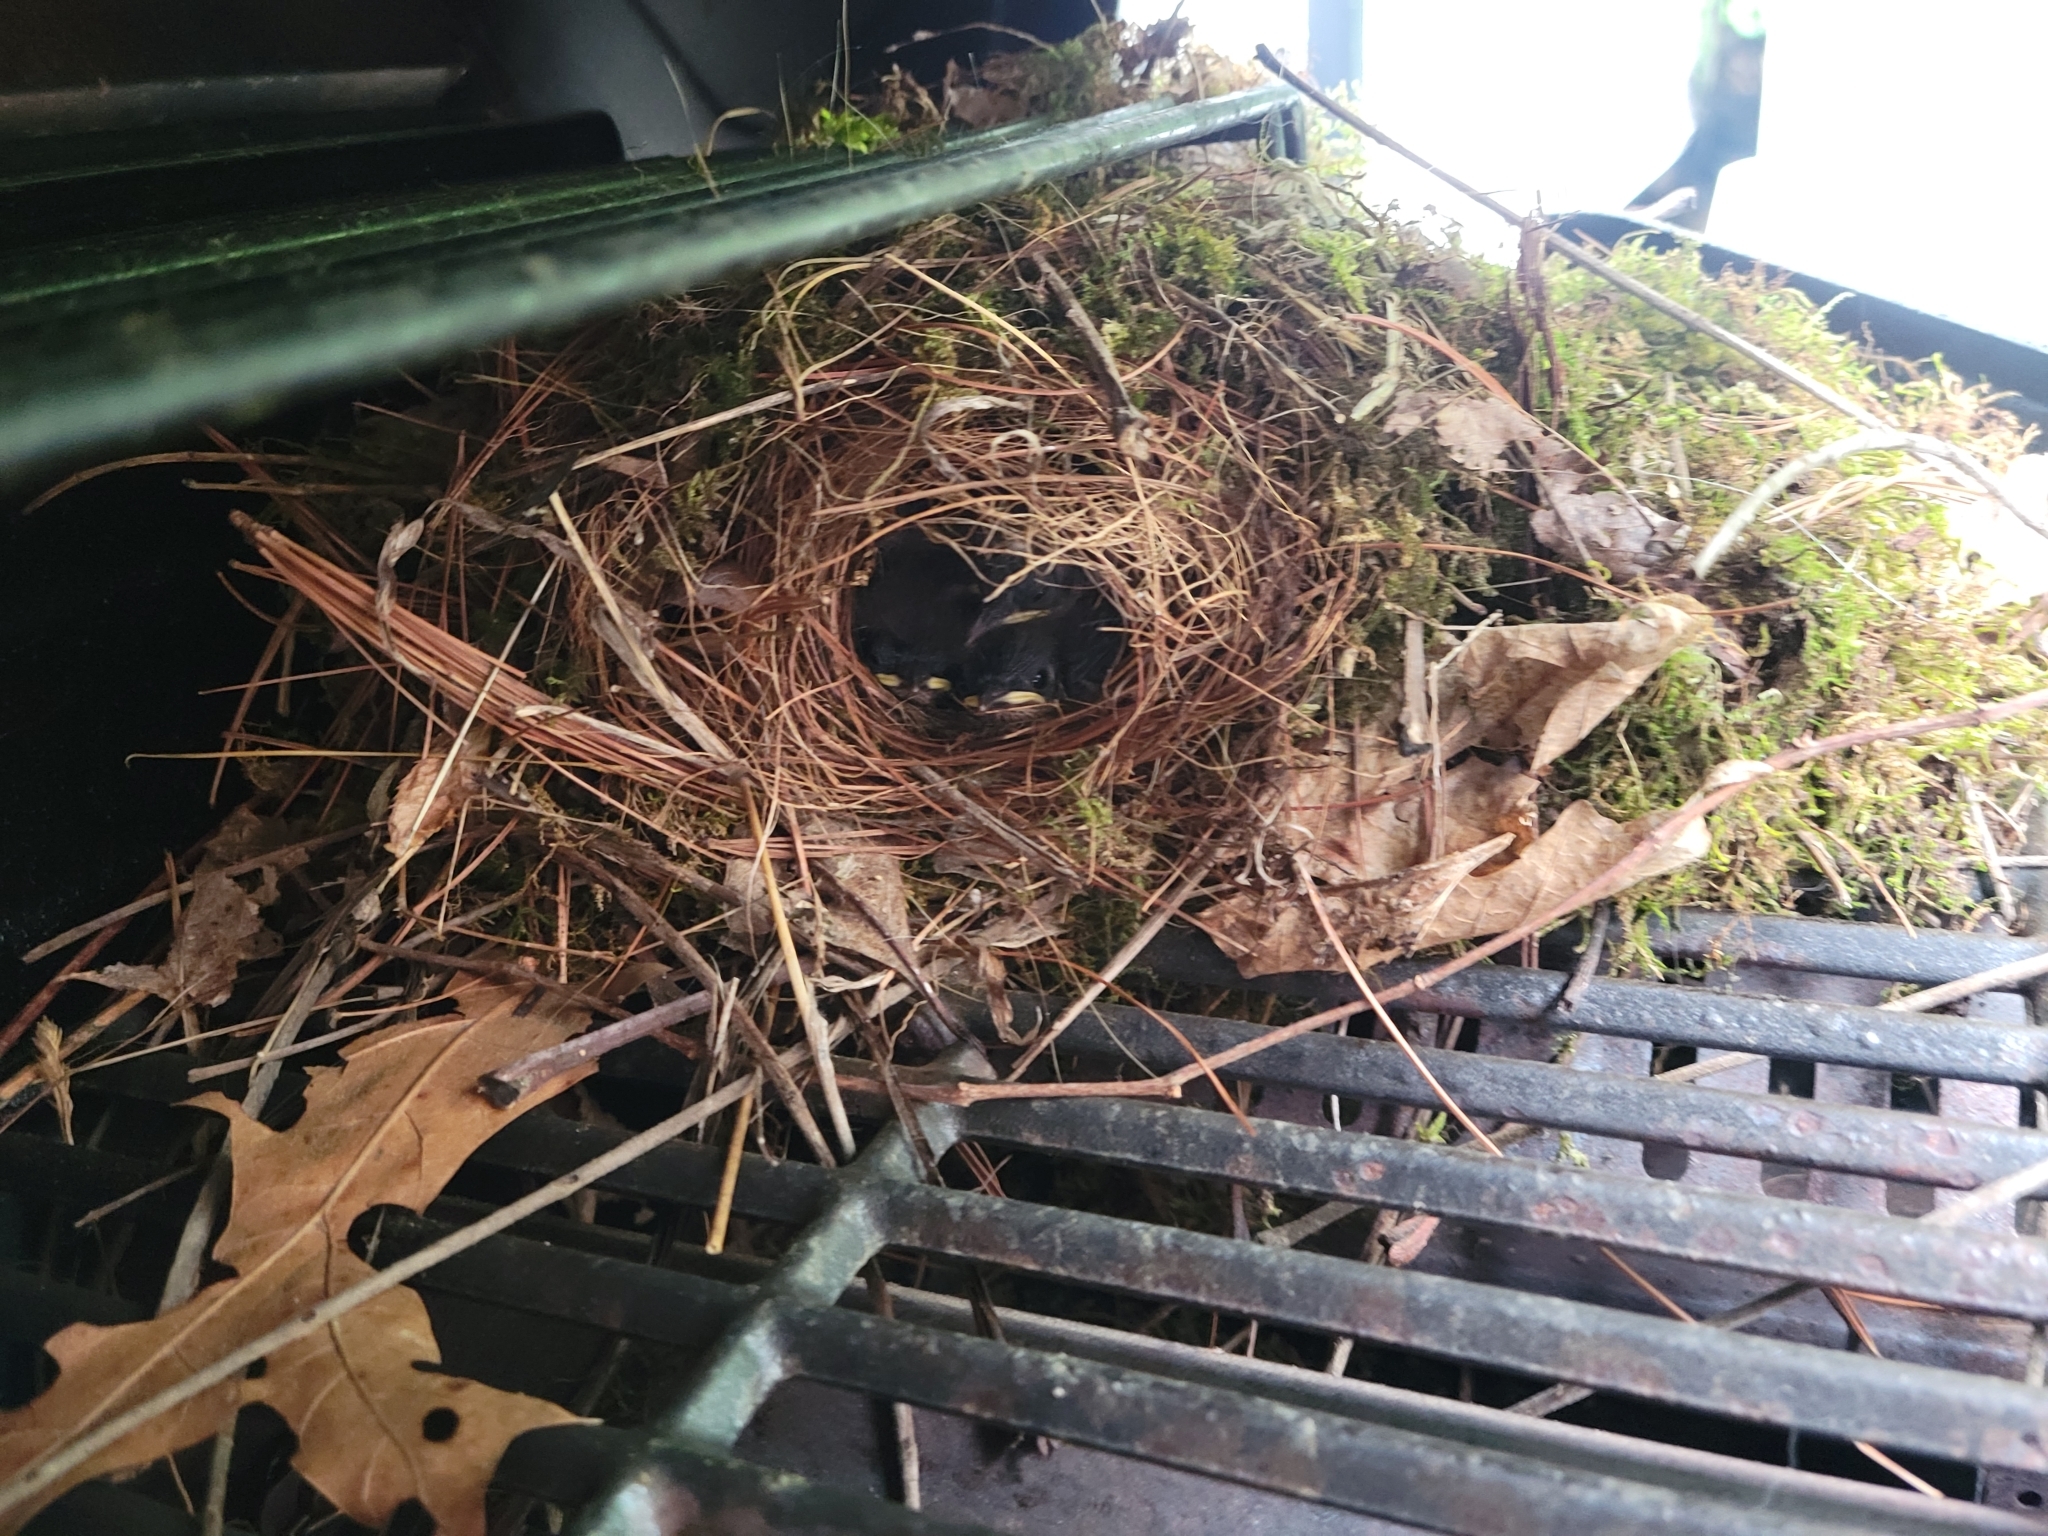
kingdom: Animalia
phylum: Chordata
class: Aves
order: Passeriformes
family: Troglodytidae
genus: Thryothorus
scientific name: Thryothorus ludovicianus
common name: Carolina wren
